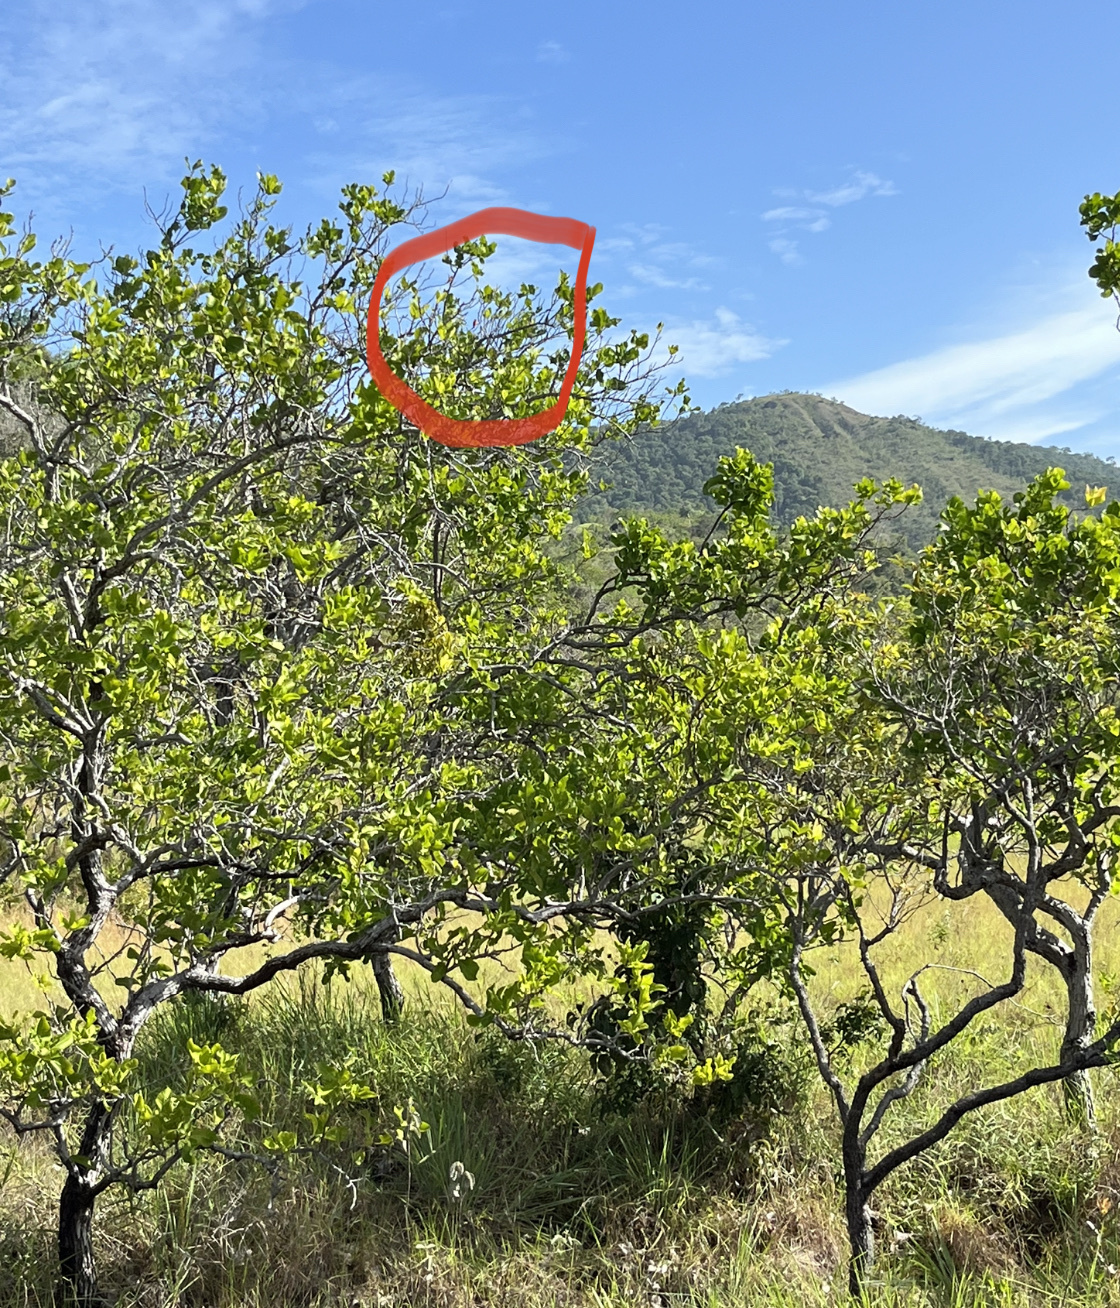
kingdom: Animalia
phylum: Chordata
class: Aves
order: Passeriformes
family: Fringillidae
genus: Spinus
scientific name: Spinus cucullatus
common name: Red siskin
